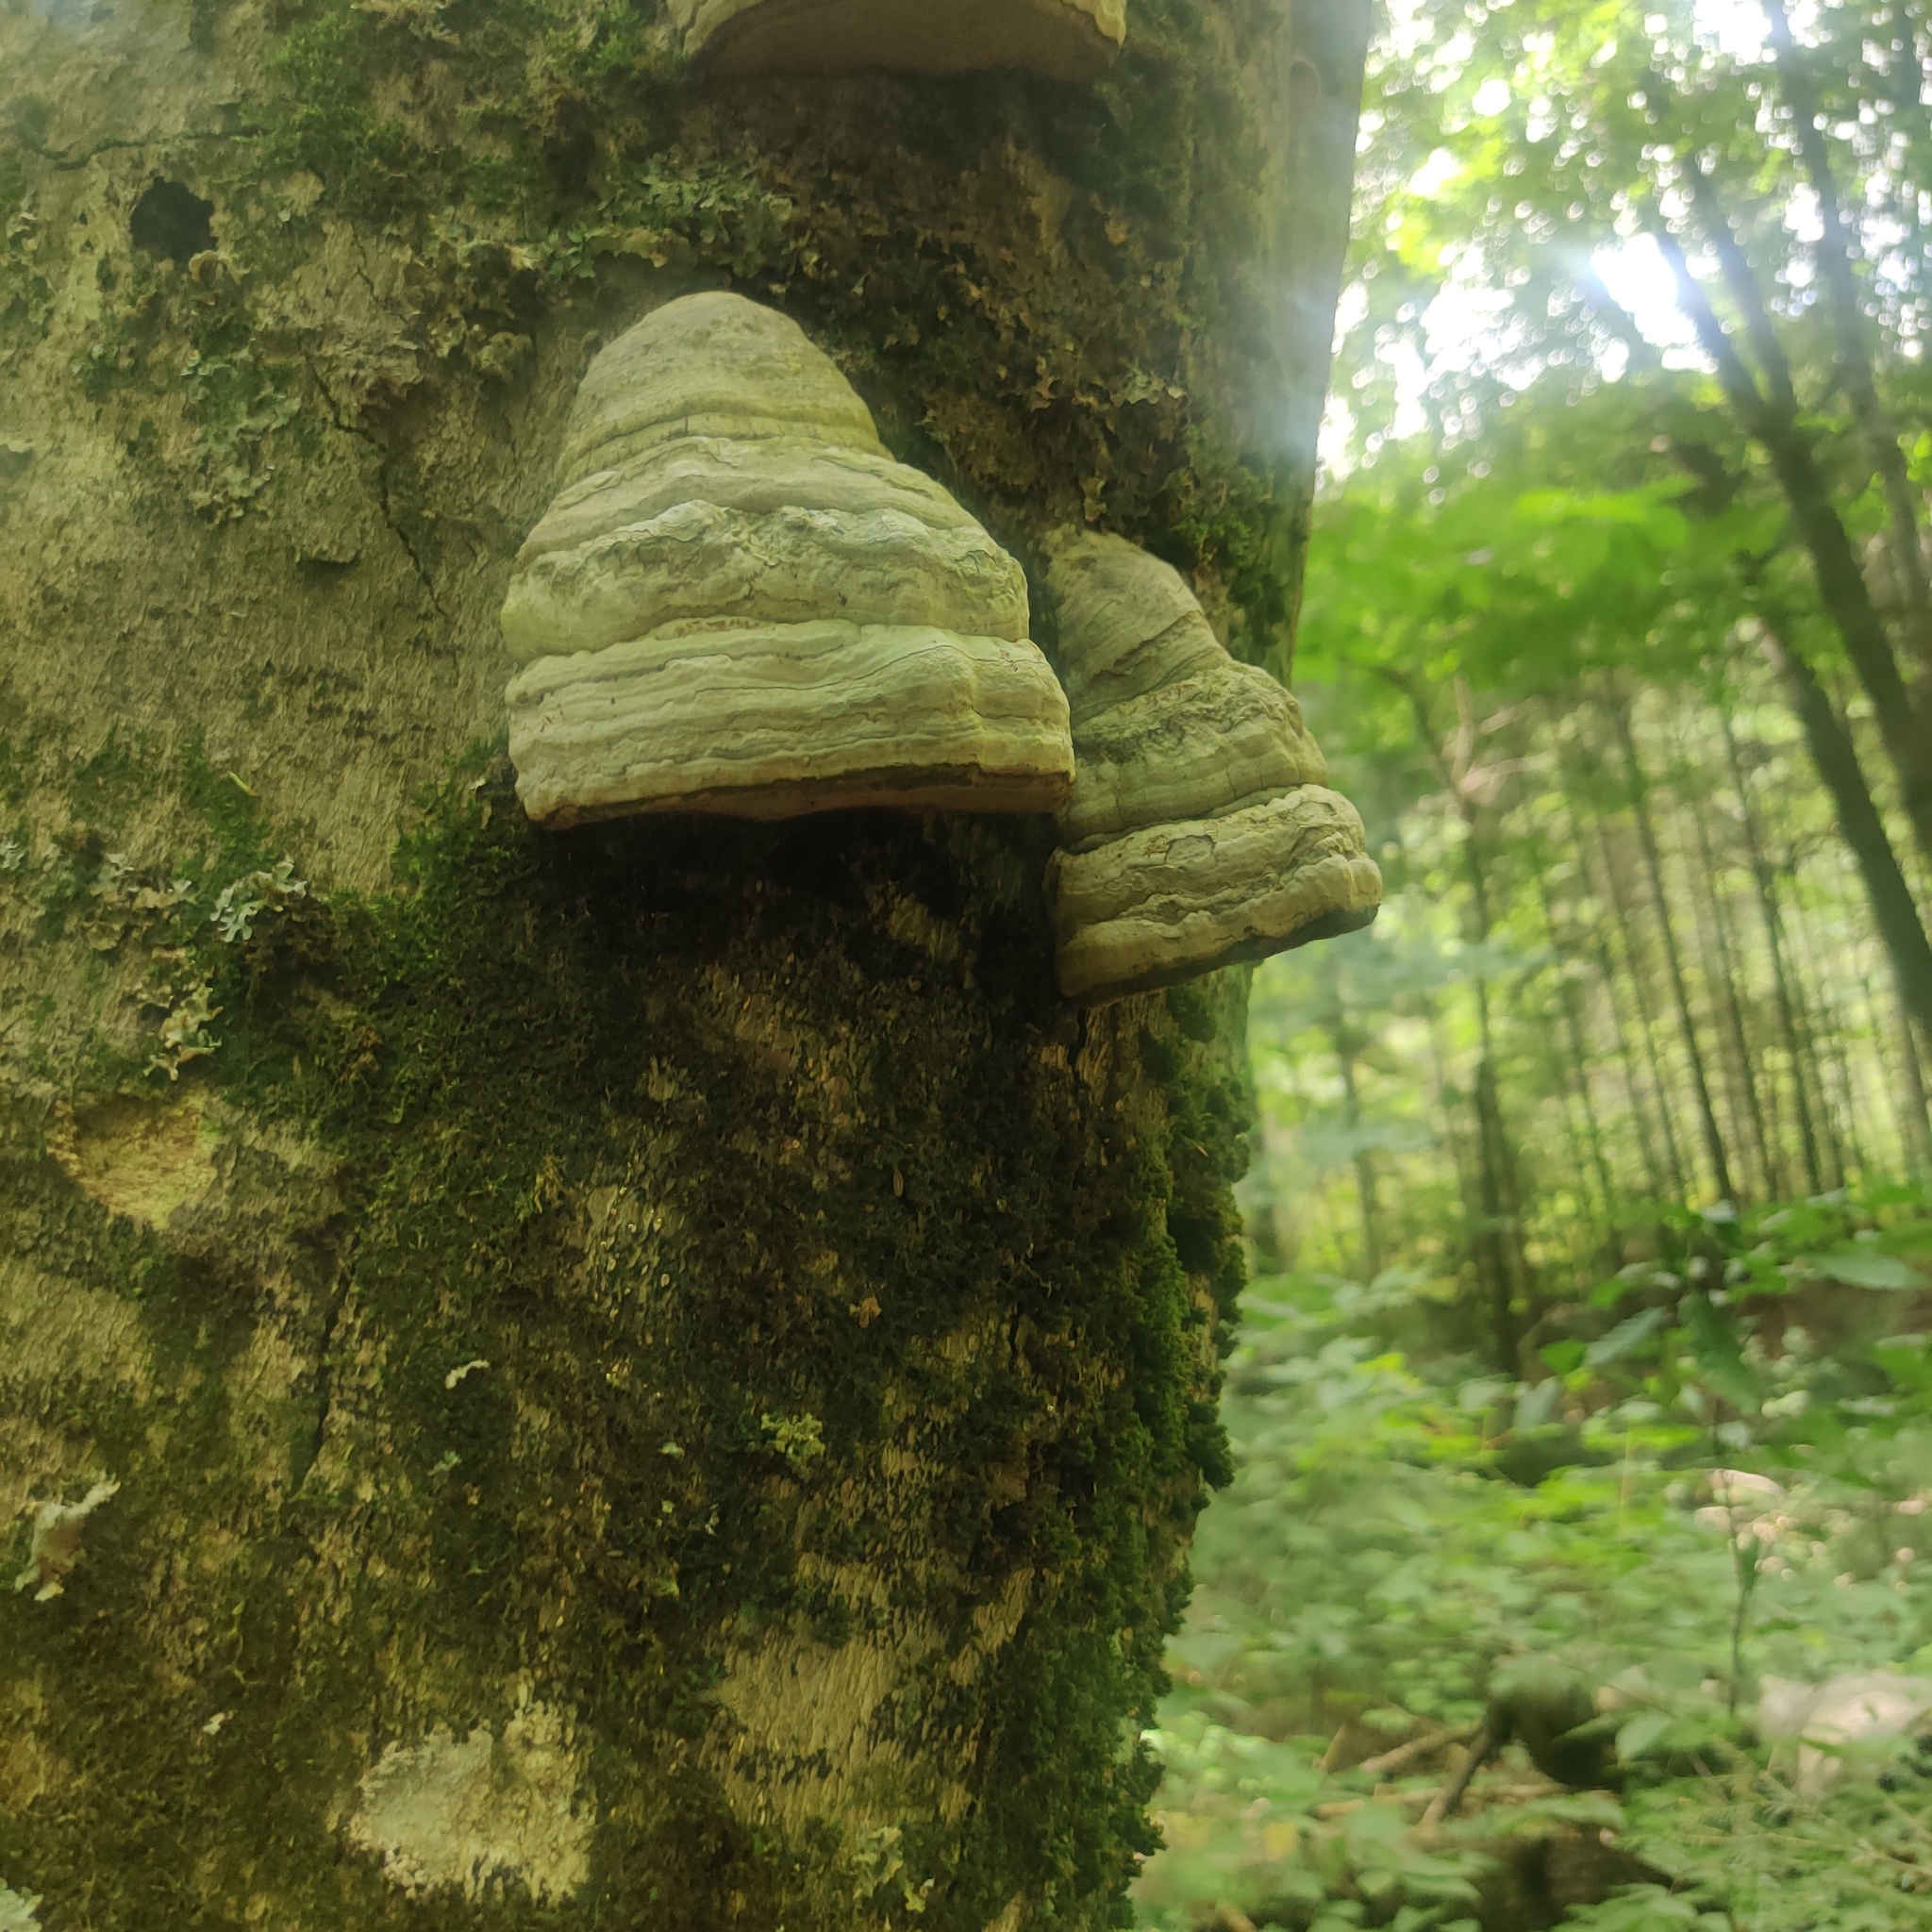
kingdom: Fungi
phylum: Basidiomycota
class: Agaricomycetes
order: Polyporales
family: Polyporaceae
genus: Fomes
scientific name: Fomes fomentarius
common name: Hoof fungus
